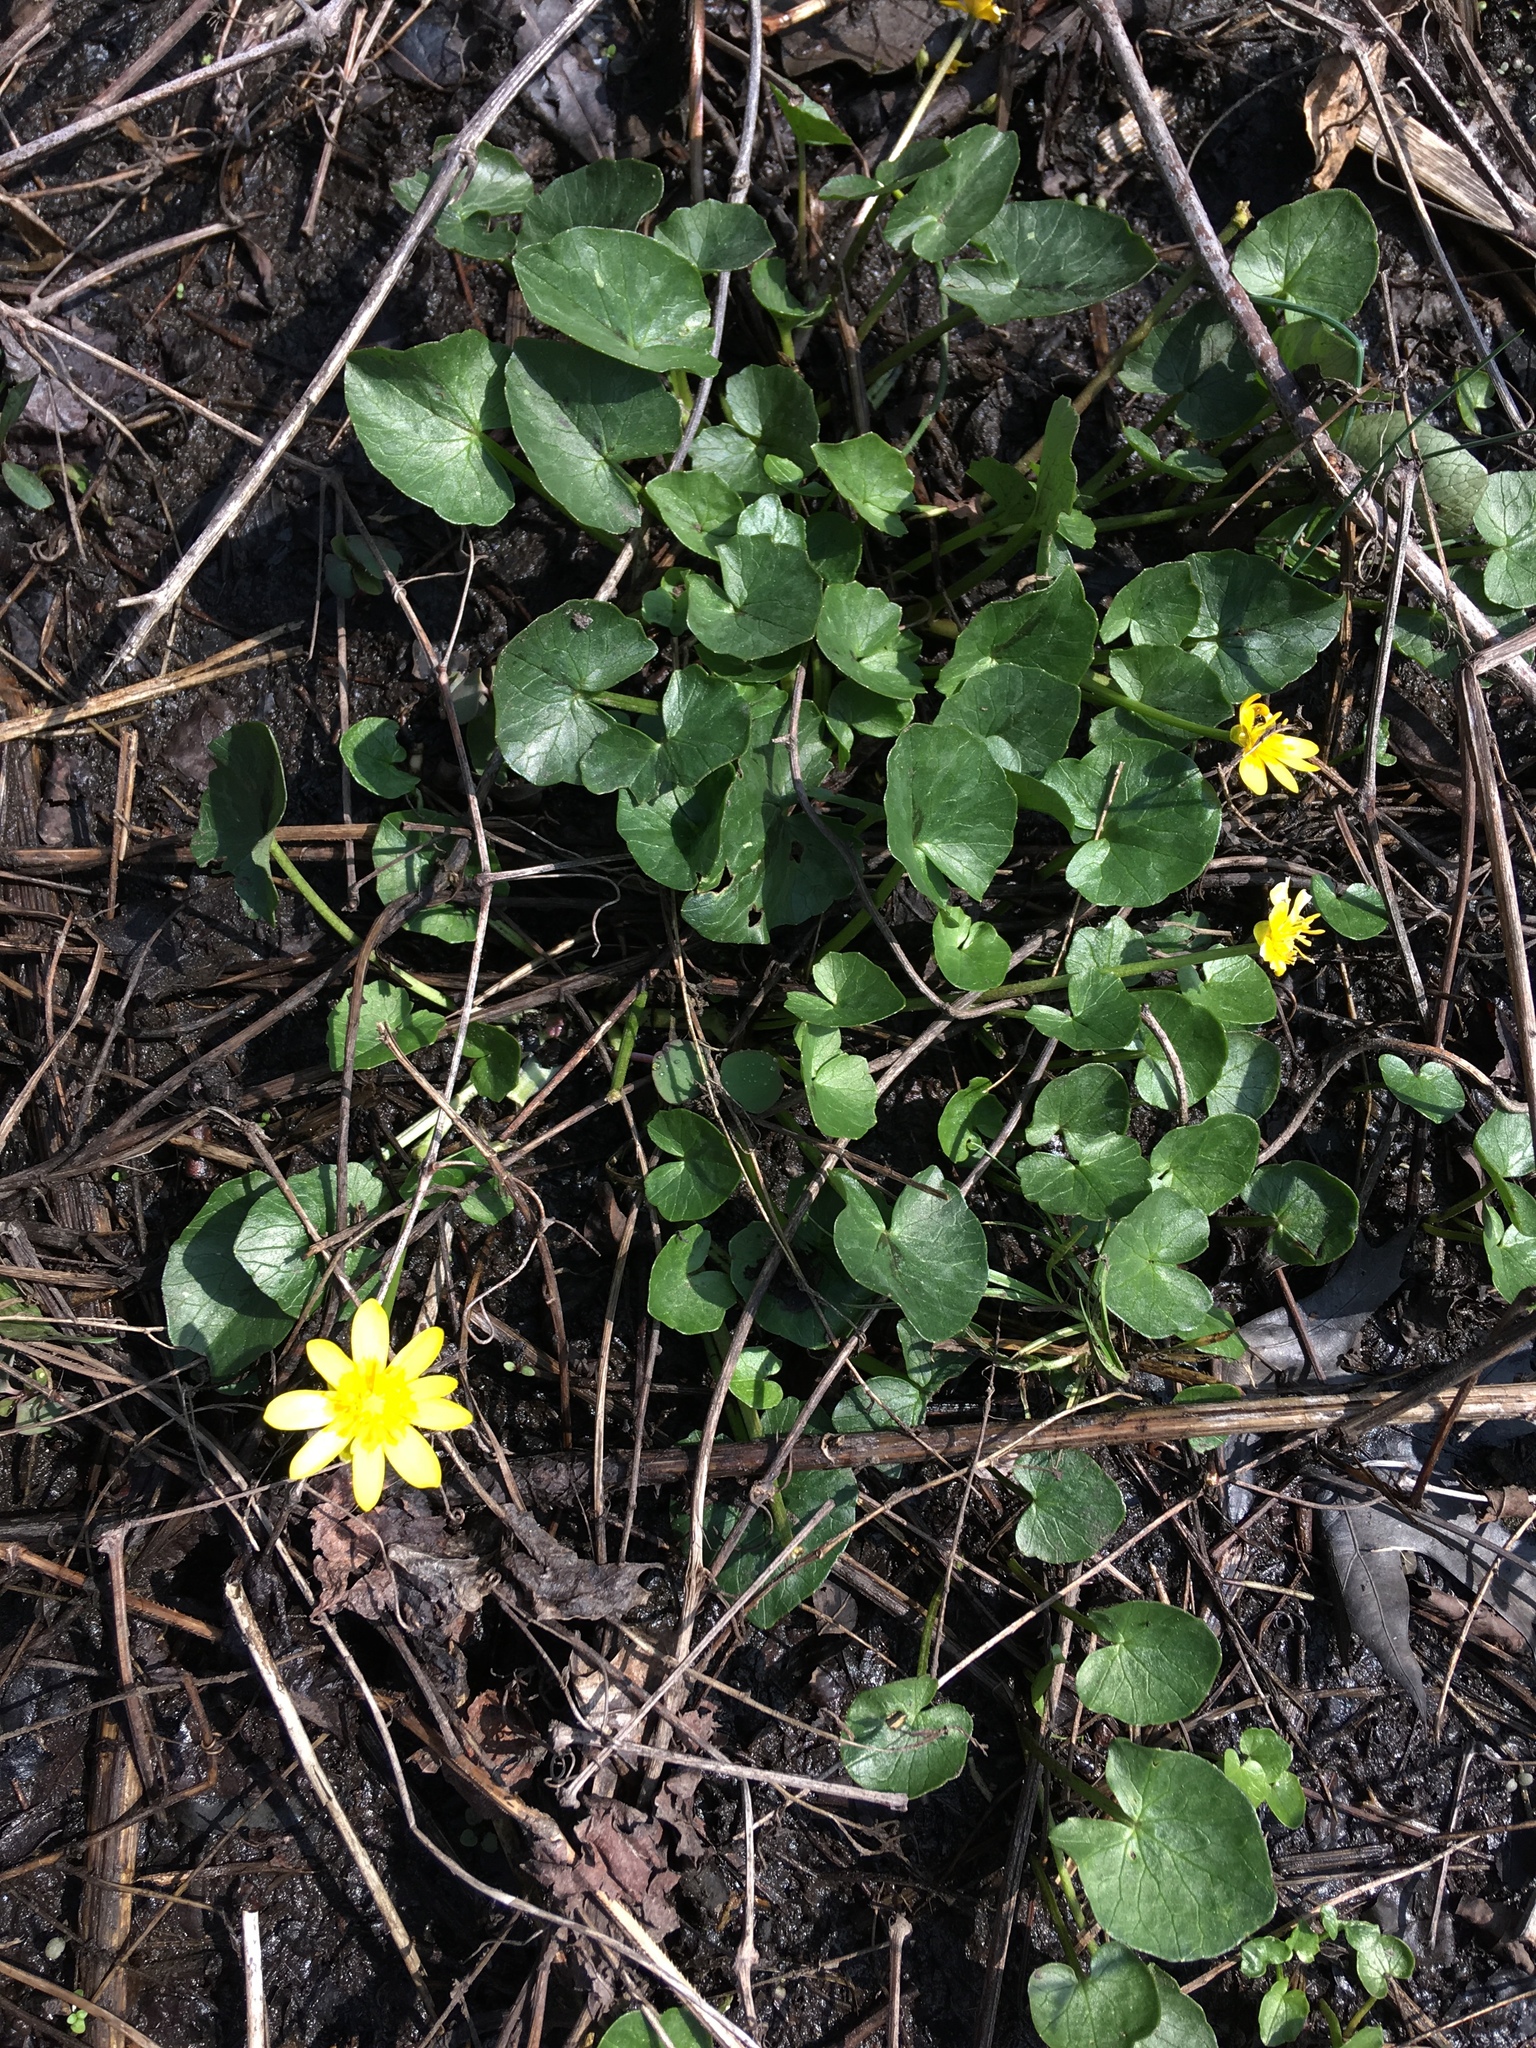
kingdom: Plantae
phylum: Tracheophyta
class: Magnoliopsida
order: Ranunculales
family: Ranunculaceae
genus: Ficaria
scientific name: Ficaria verna
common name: Lesser celandine
